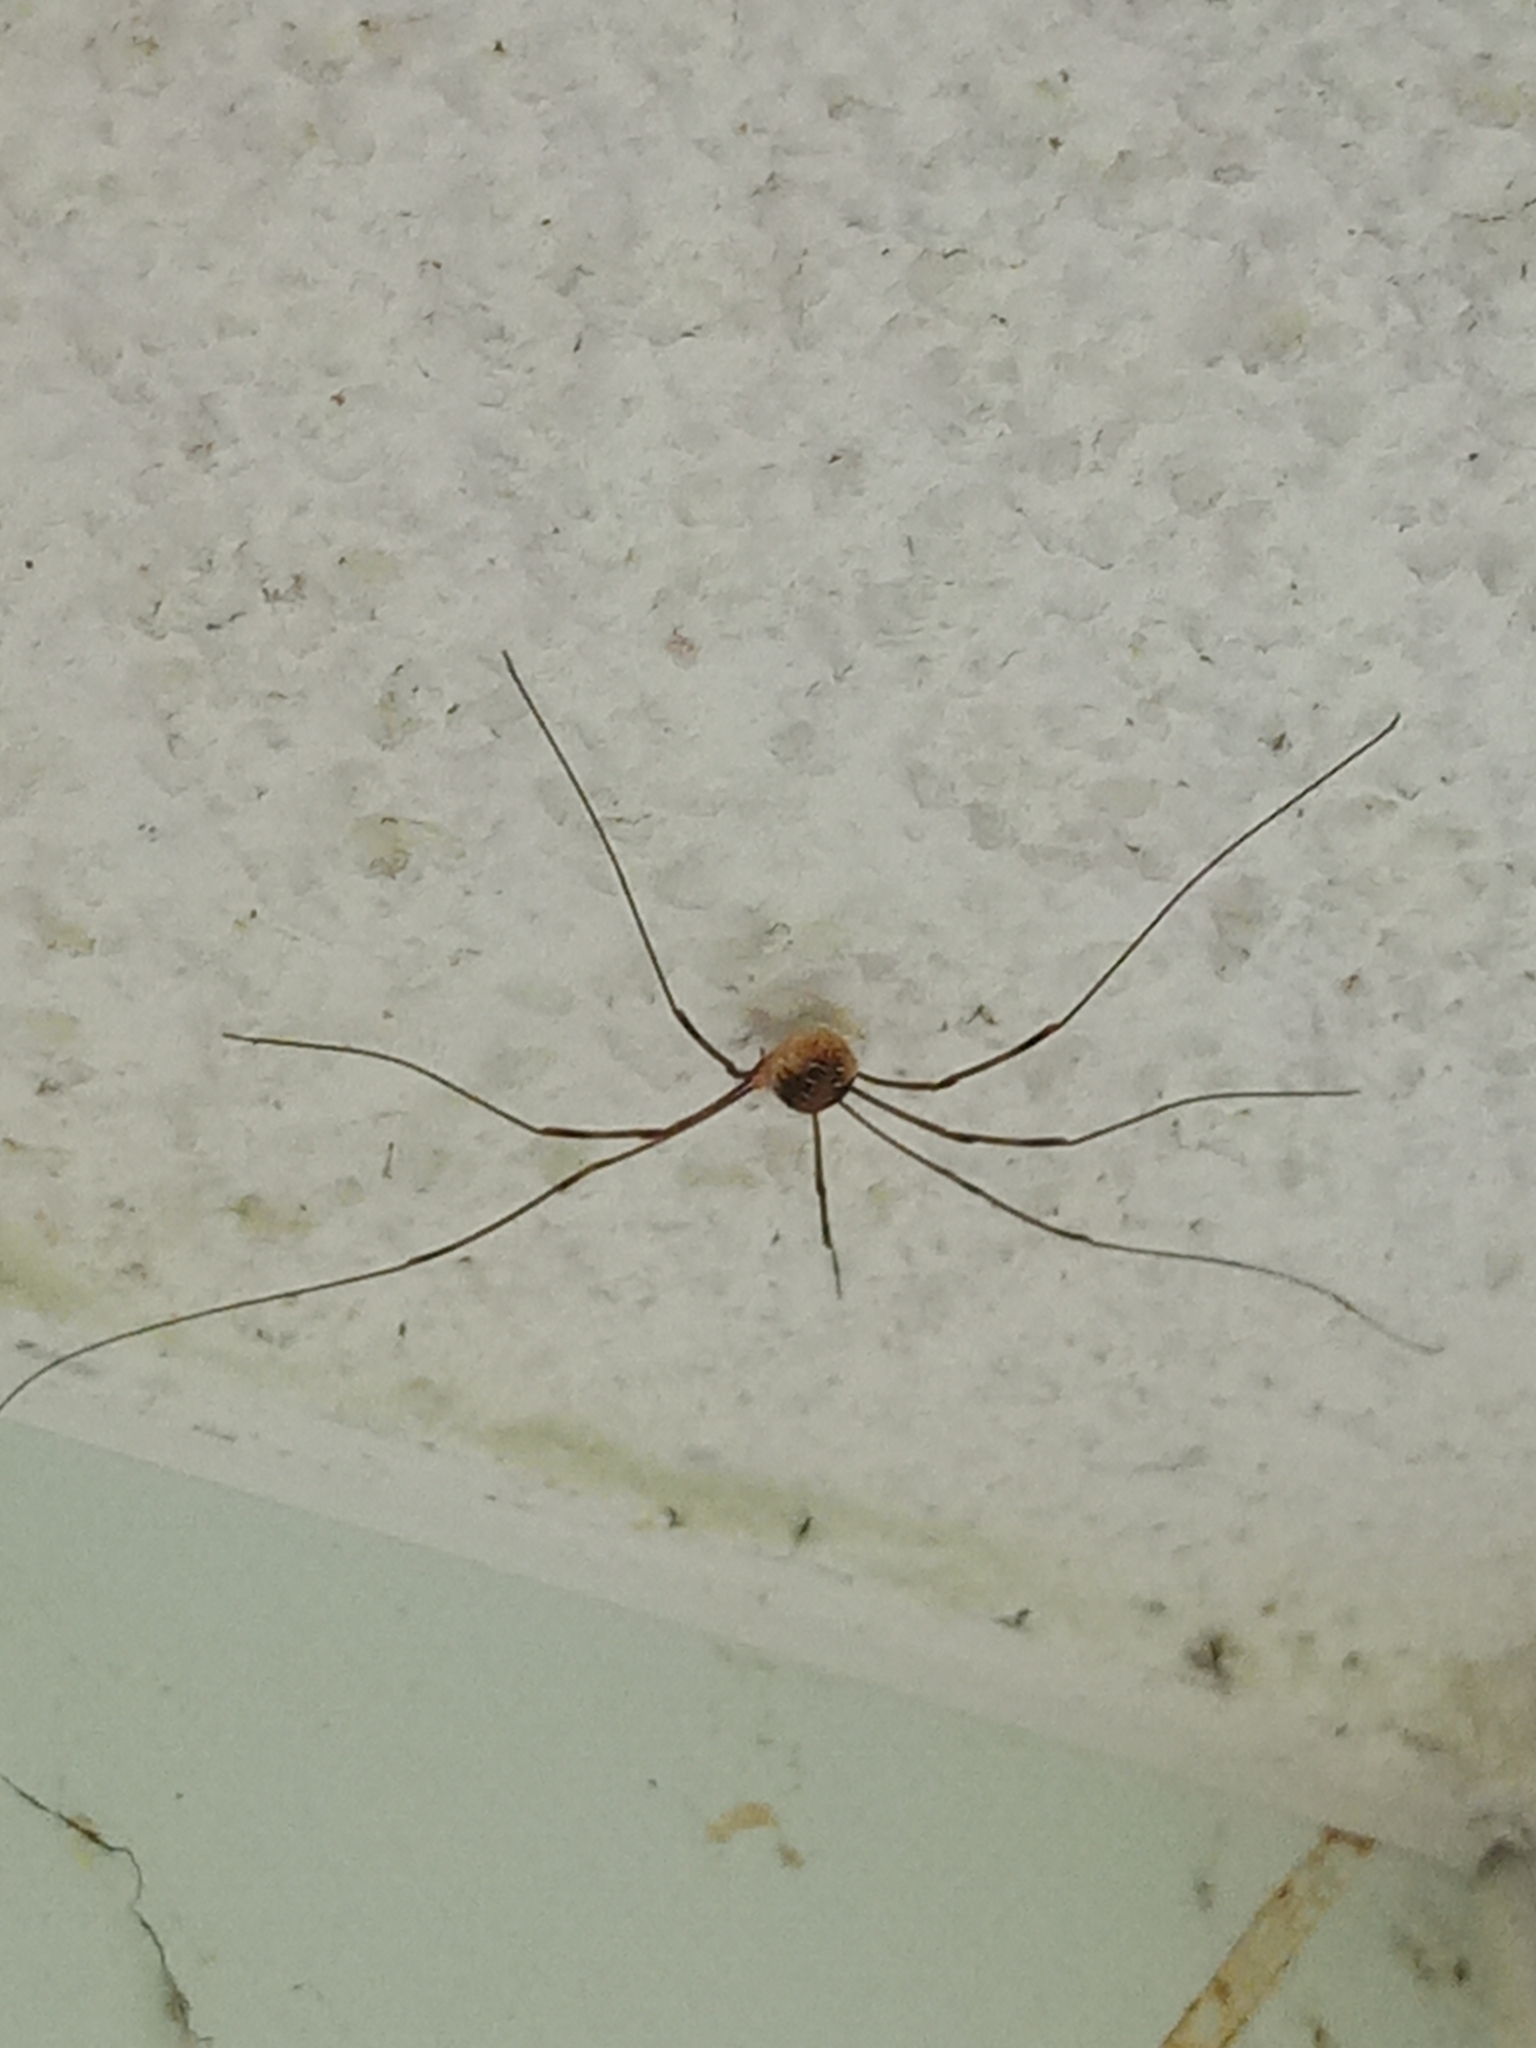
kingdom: Animalia
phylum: Arthropoda
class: Arachnida
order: Opiliones
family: Phalangiidae
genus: Opilio
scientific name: Opilio canestrinii
